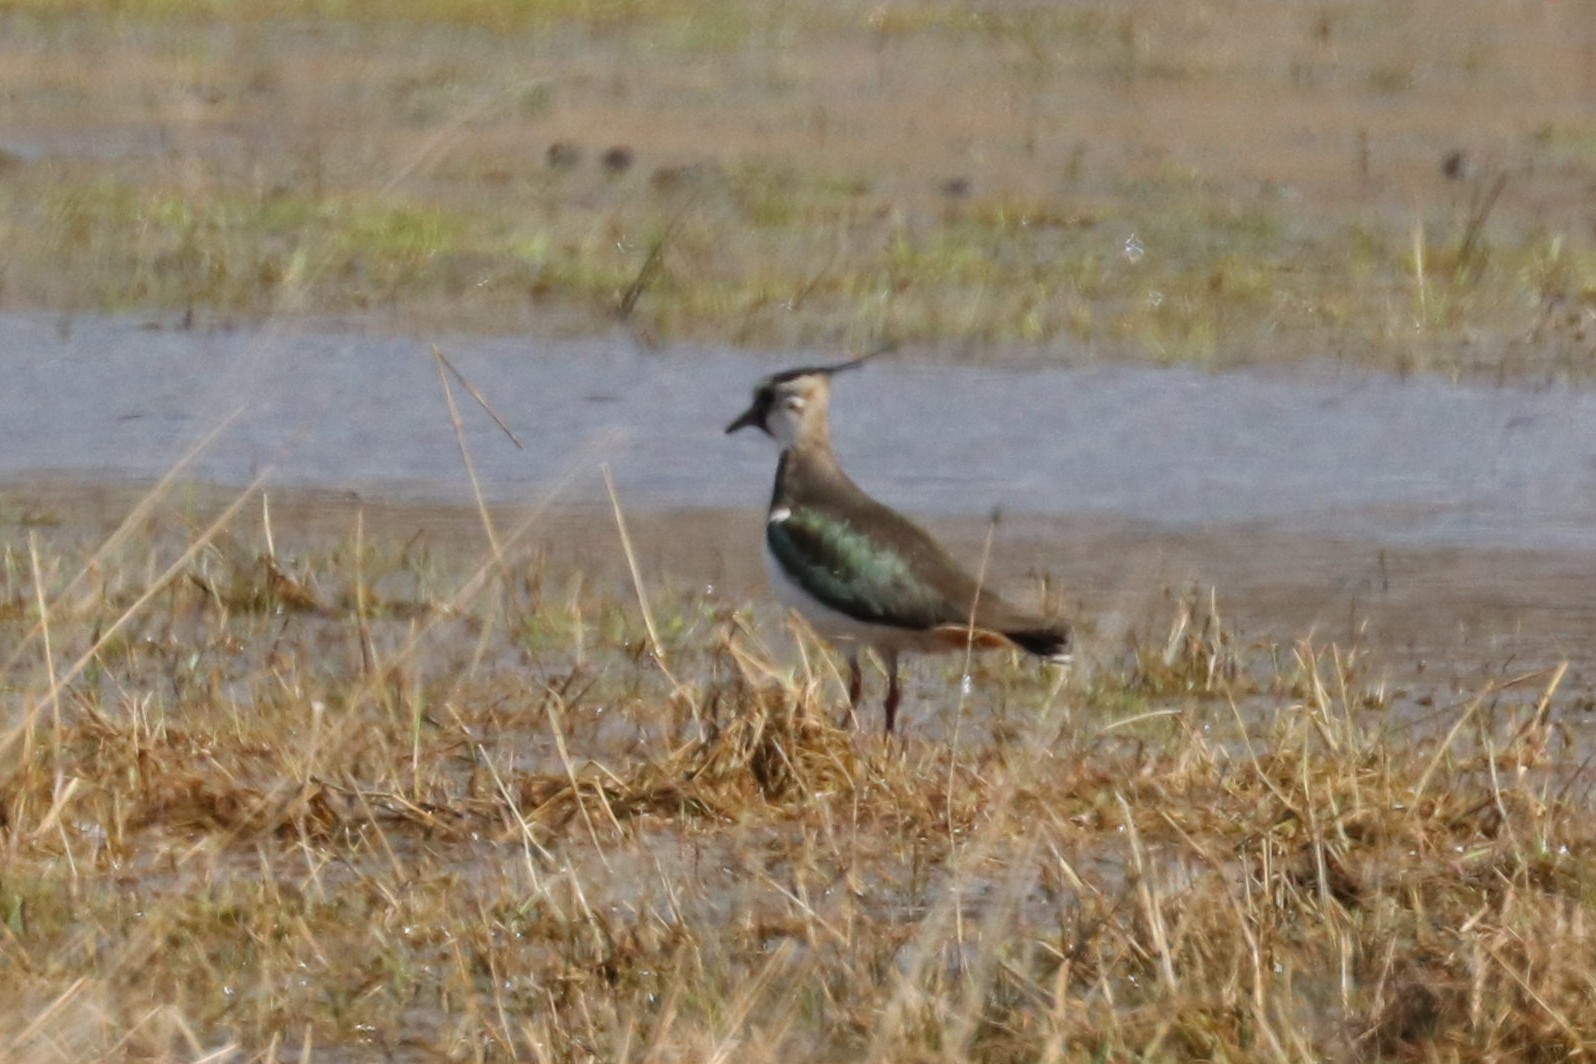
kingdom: Animalia
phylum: Chordata
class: Aves
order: Charadriiformes
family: Charadriidae
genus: Vanellus
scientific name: Vanellus vanellus
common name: Northern lapwing
